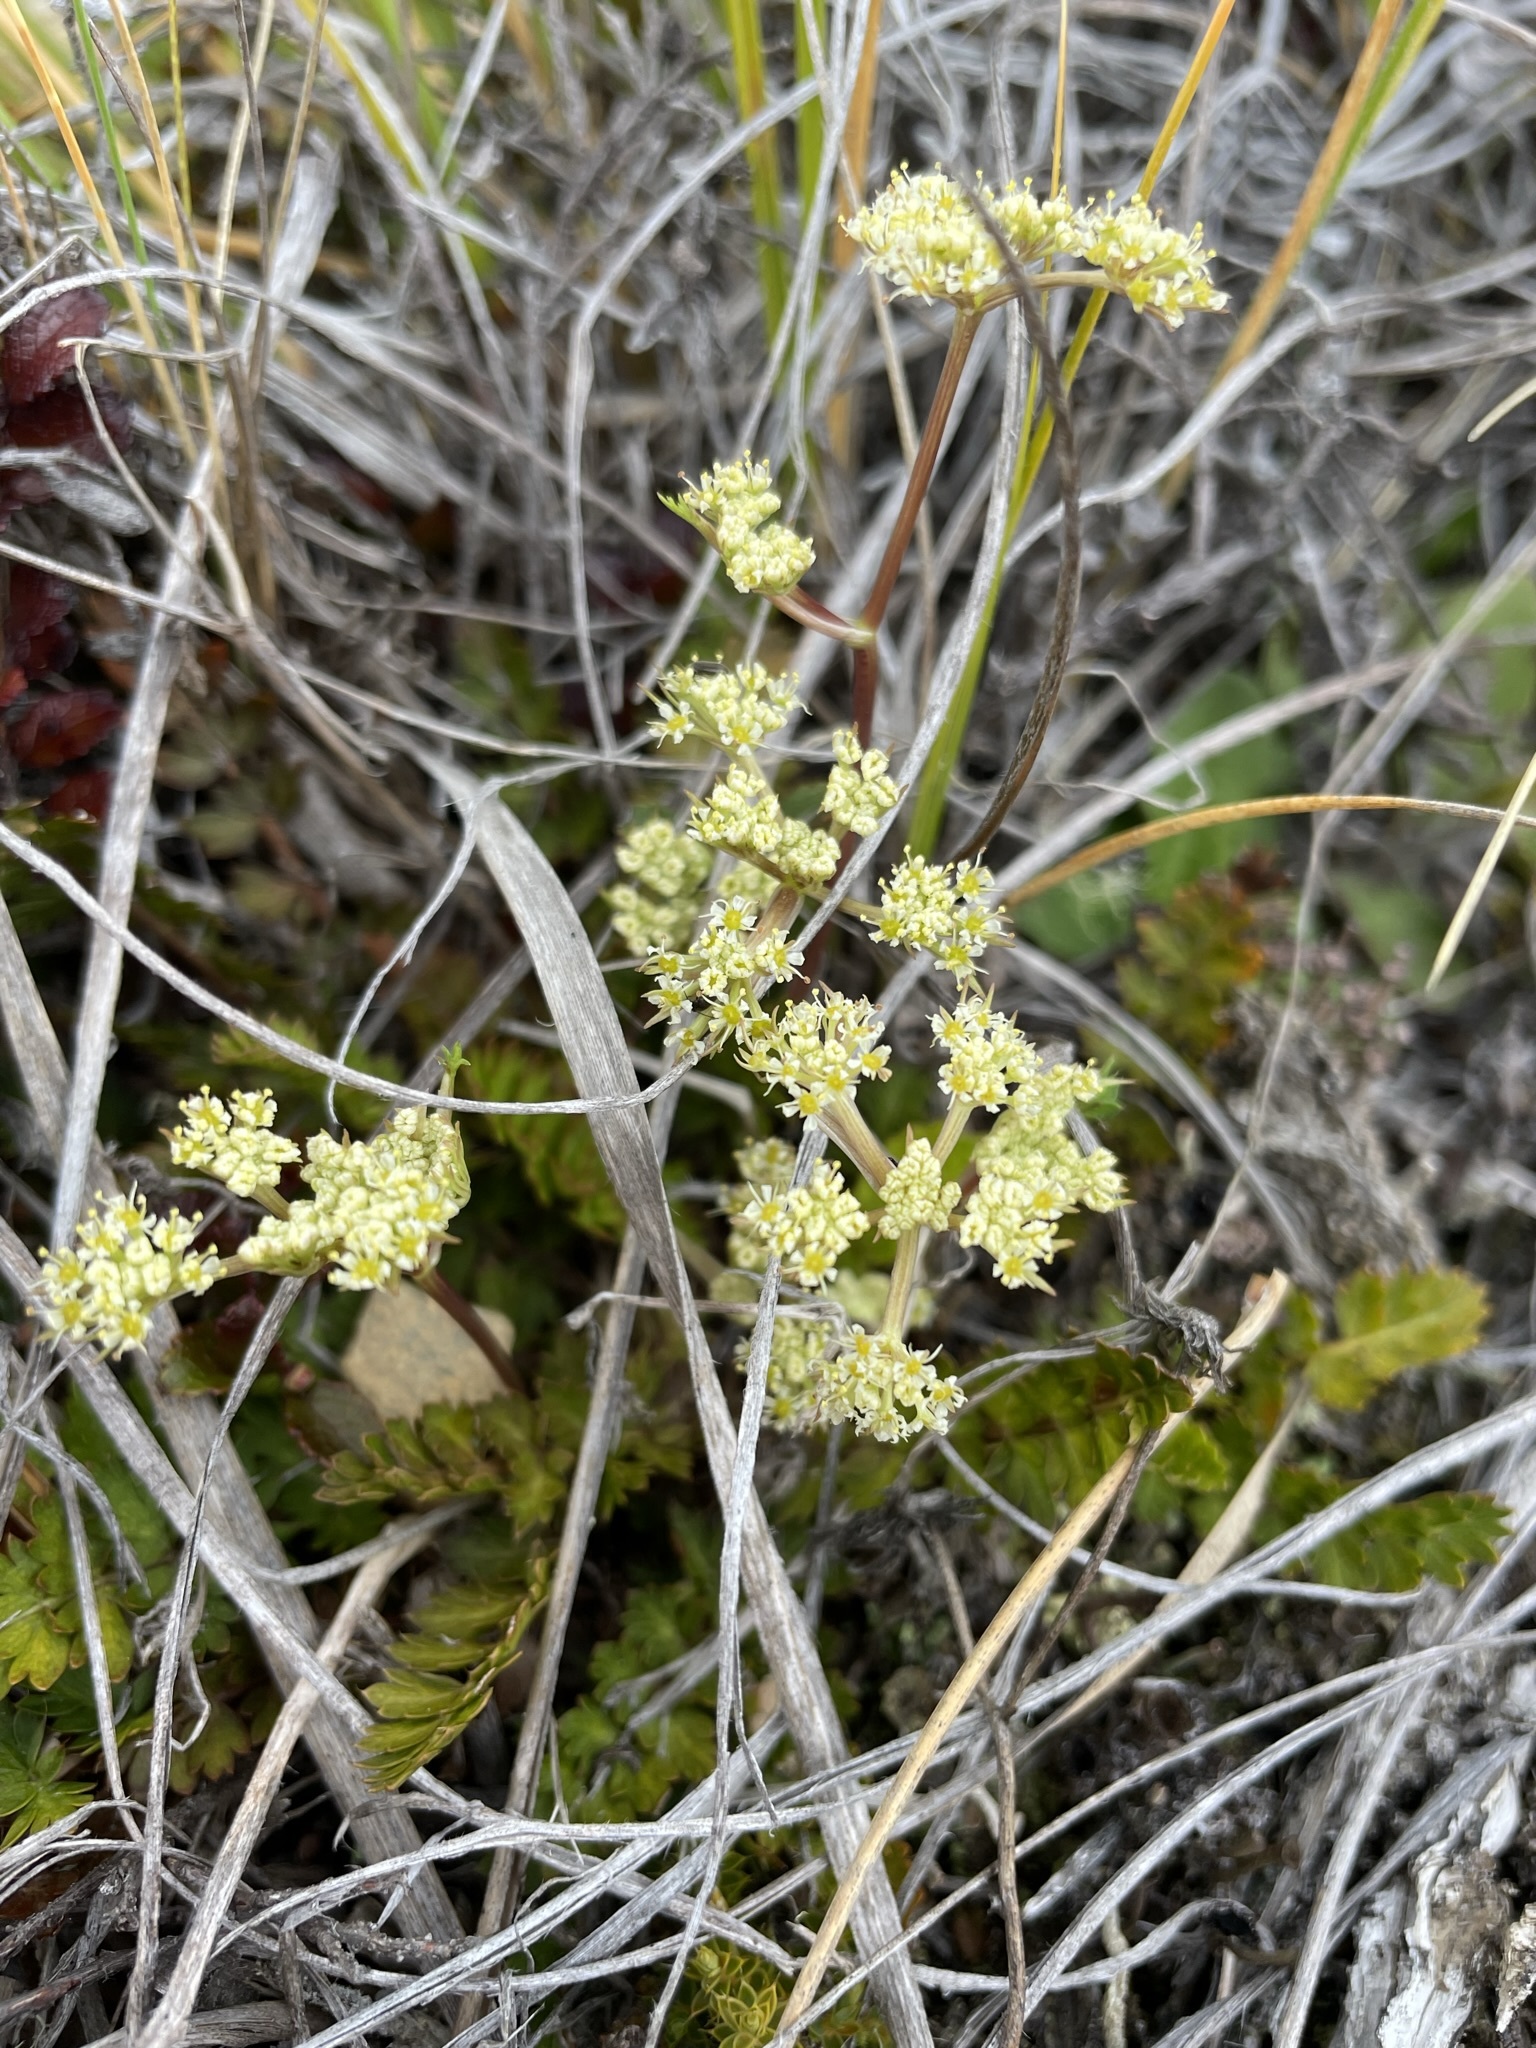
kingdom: Plantae
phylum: Tracheophyta
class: Magnoliopsida
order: Apiales
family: Apiaceae
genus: Anisotome
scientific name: Anisotome flexuosa
